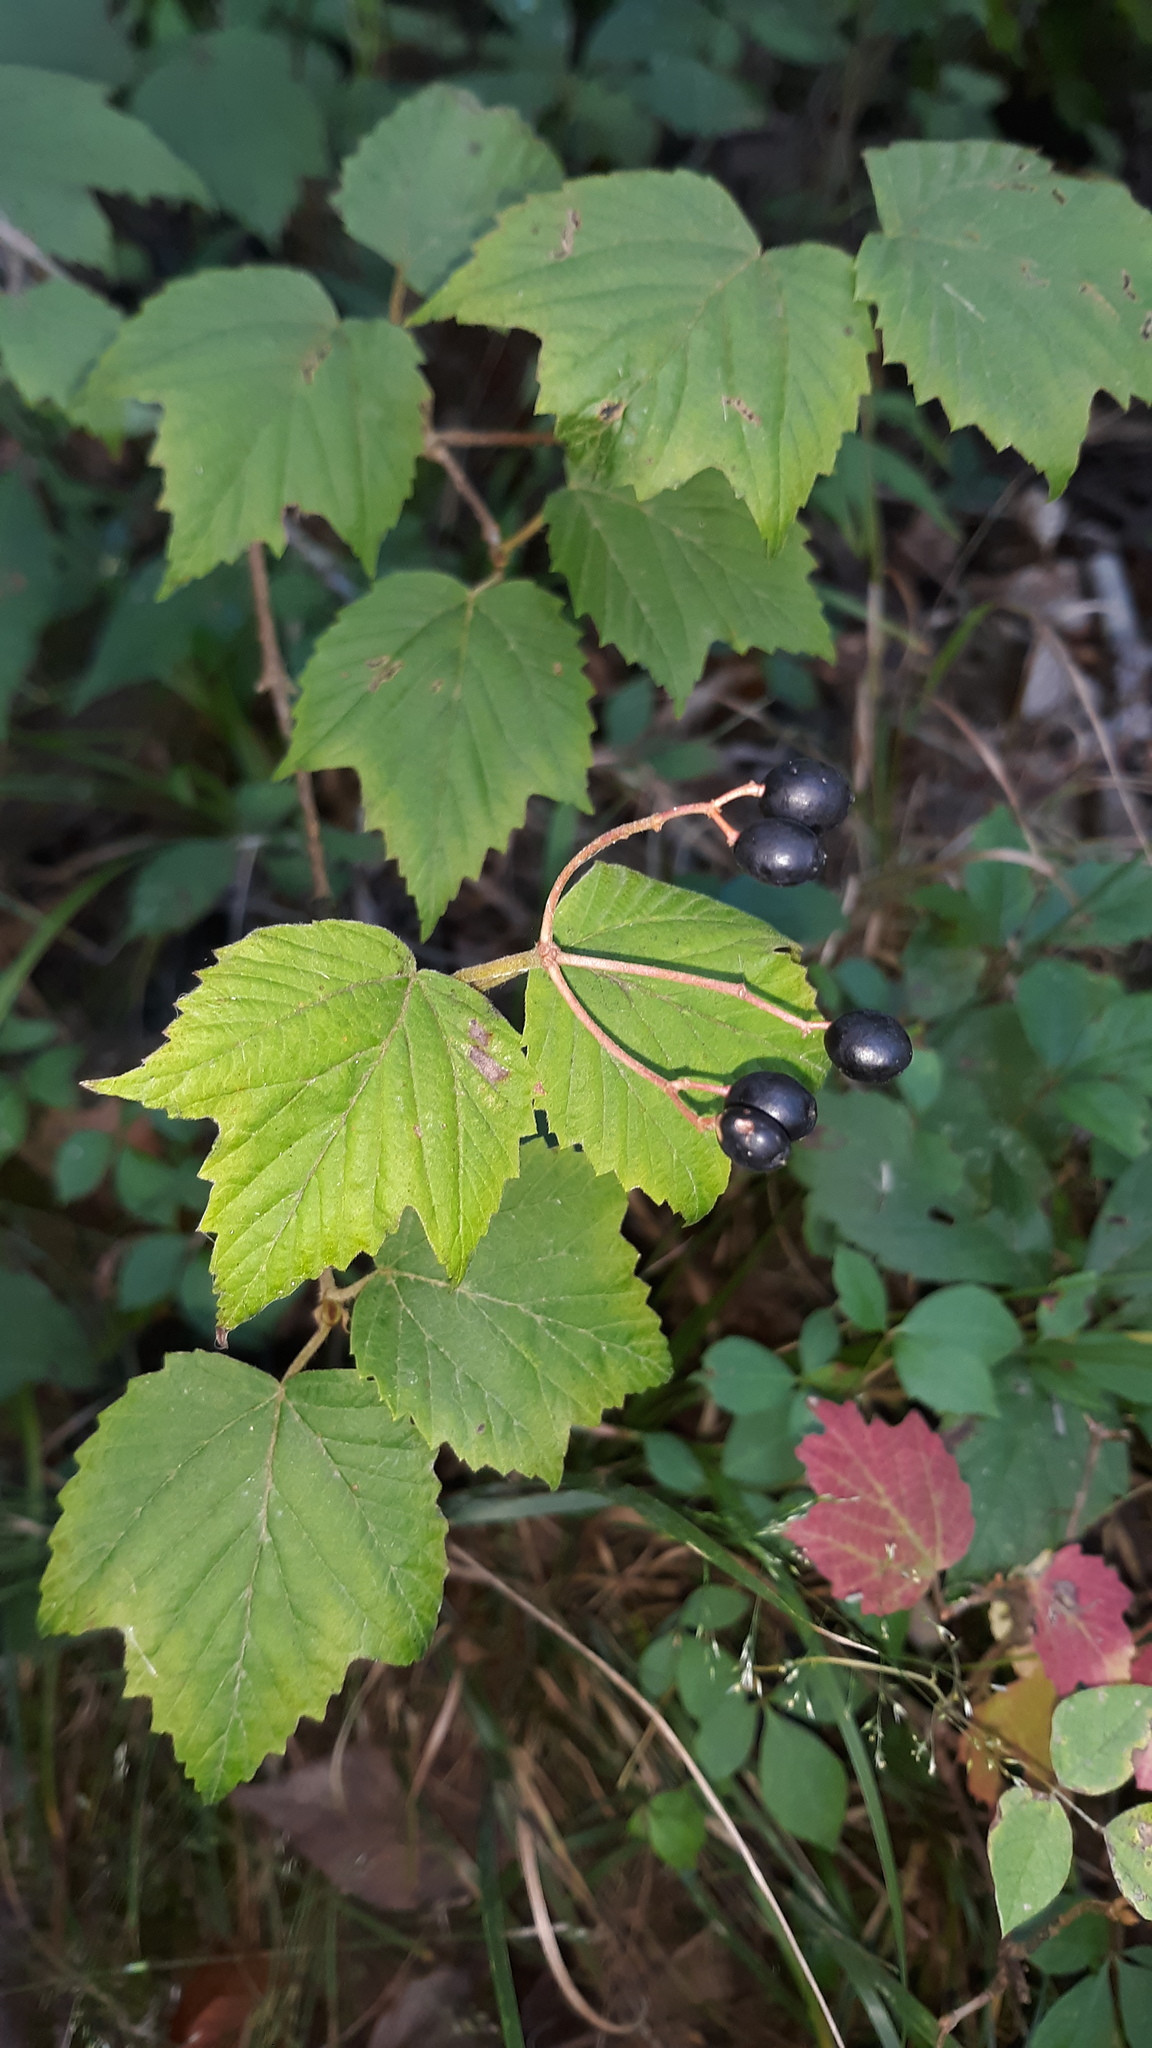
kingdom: Plantae
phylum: Tracheophyta
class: Magnoliopsida
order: Dipsacales
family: Viburnaceae
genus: Viburnum
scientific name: Viburnum acerifolium
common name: Dockmackie
